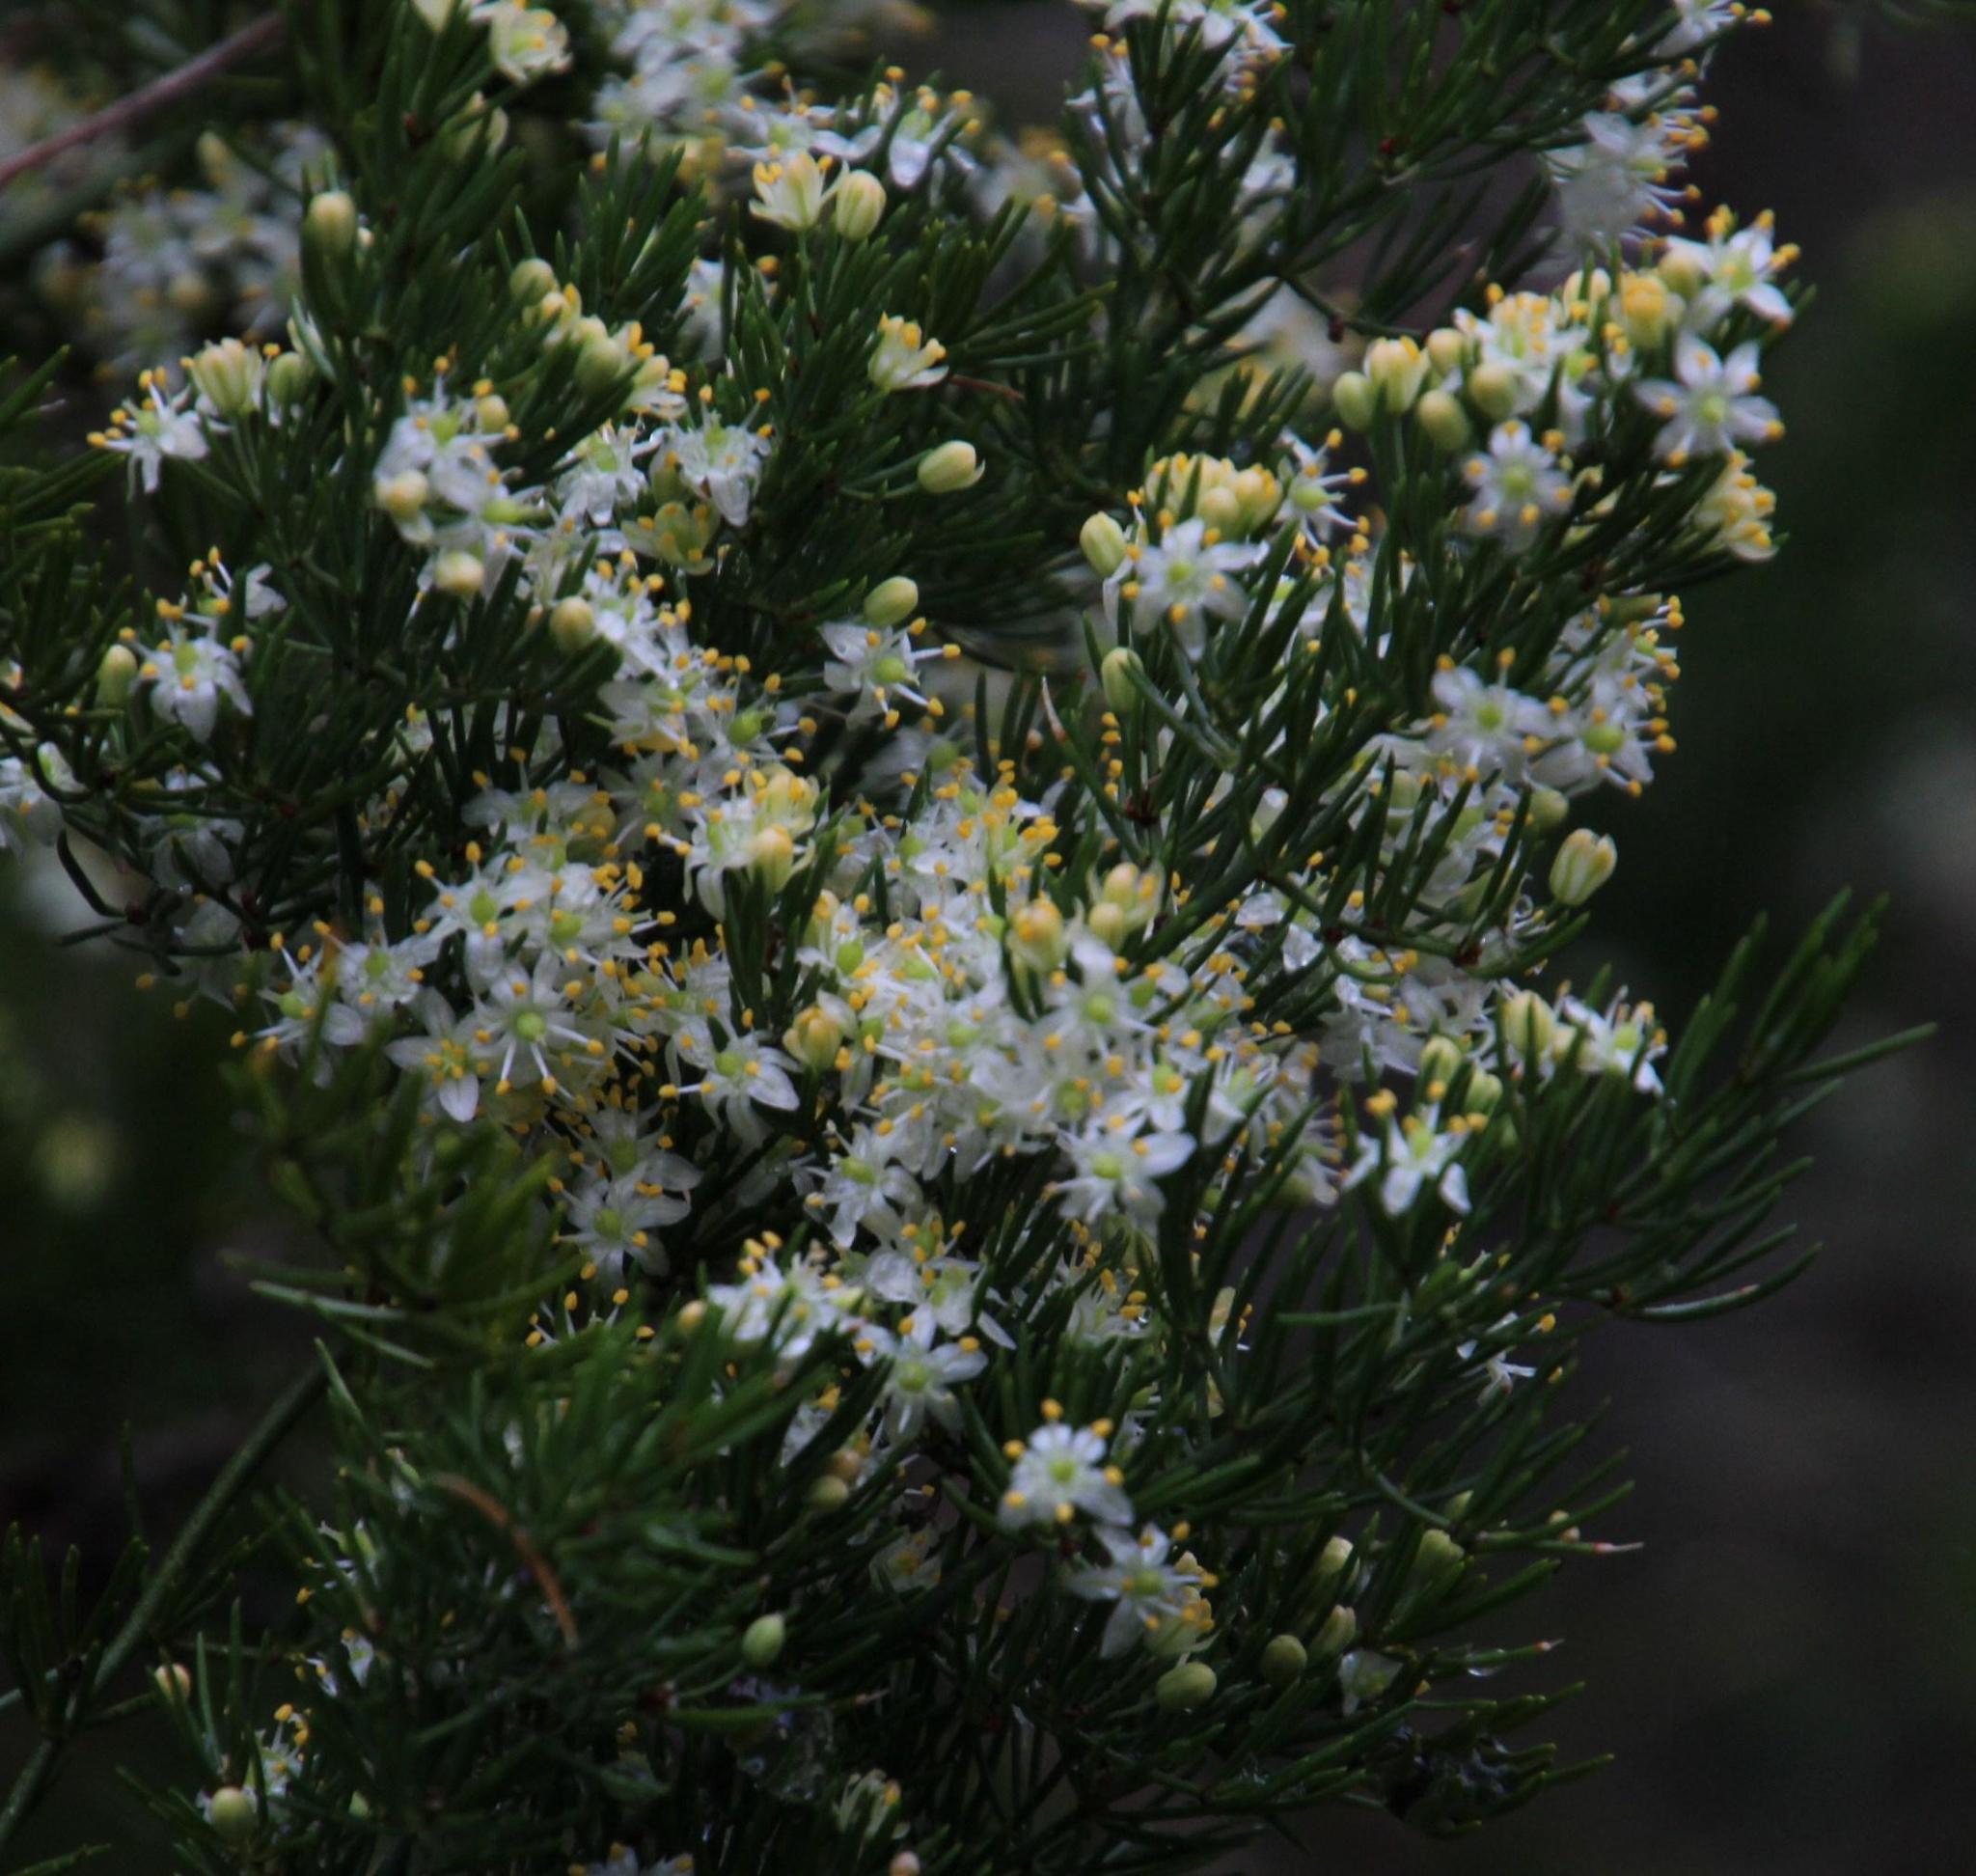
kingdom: Plantae
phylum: Tracheophyta
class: Liliopsida
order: Asparagales
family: Asparagaceae
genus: Asparagus
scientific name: Asparagus africanus
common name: Asparagus-fern
